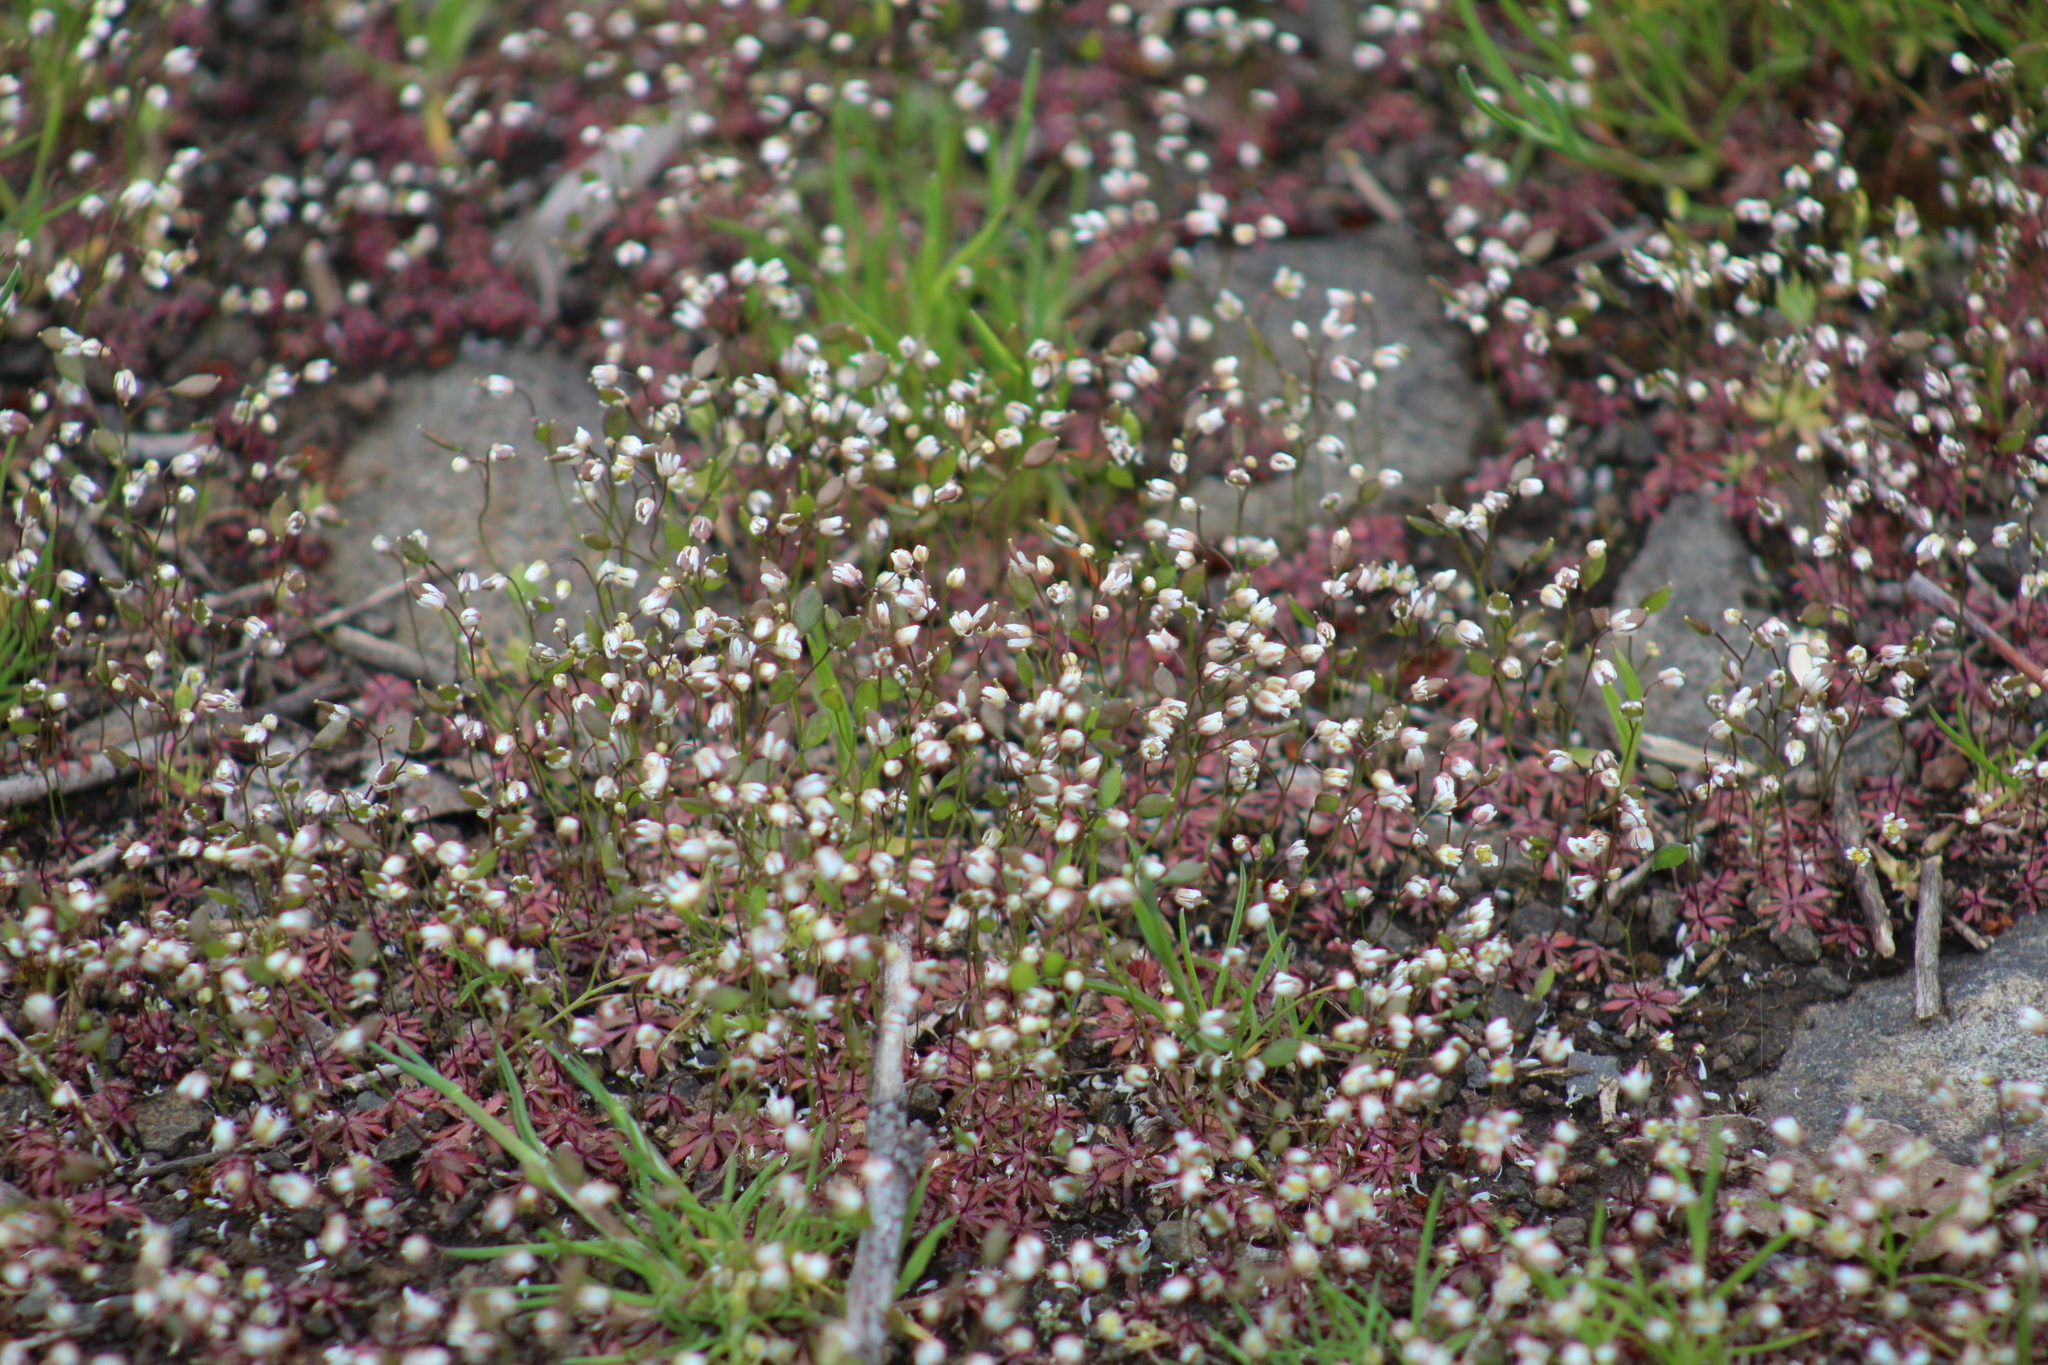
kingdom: Plantae
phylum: Tracheophyta
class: Magnoliopsida
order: Brassicales
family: Brassicaceae
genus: Draba
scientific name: Draba verna
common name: Spring draba
